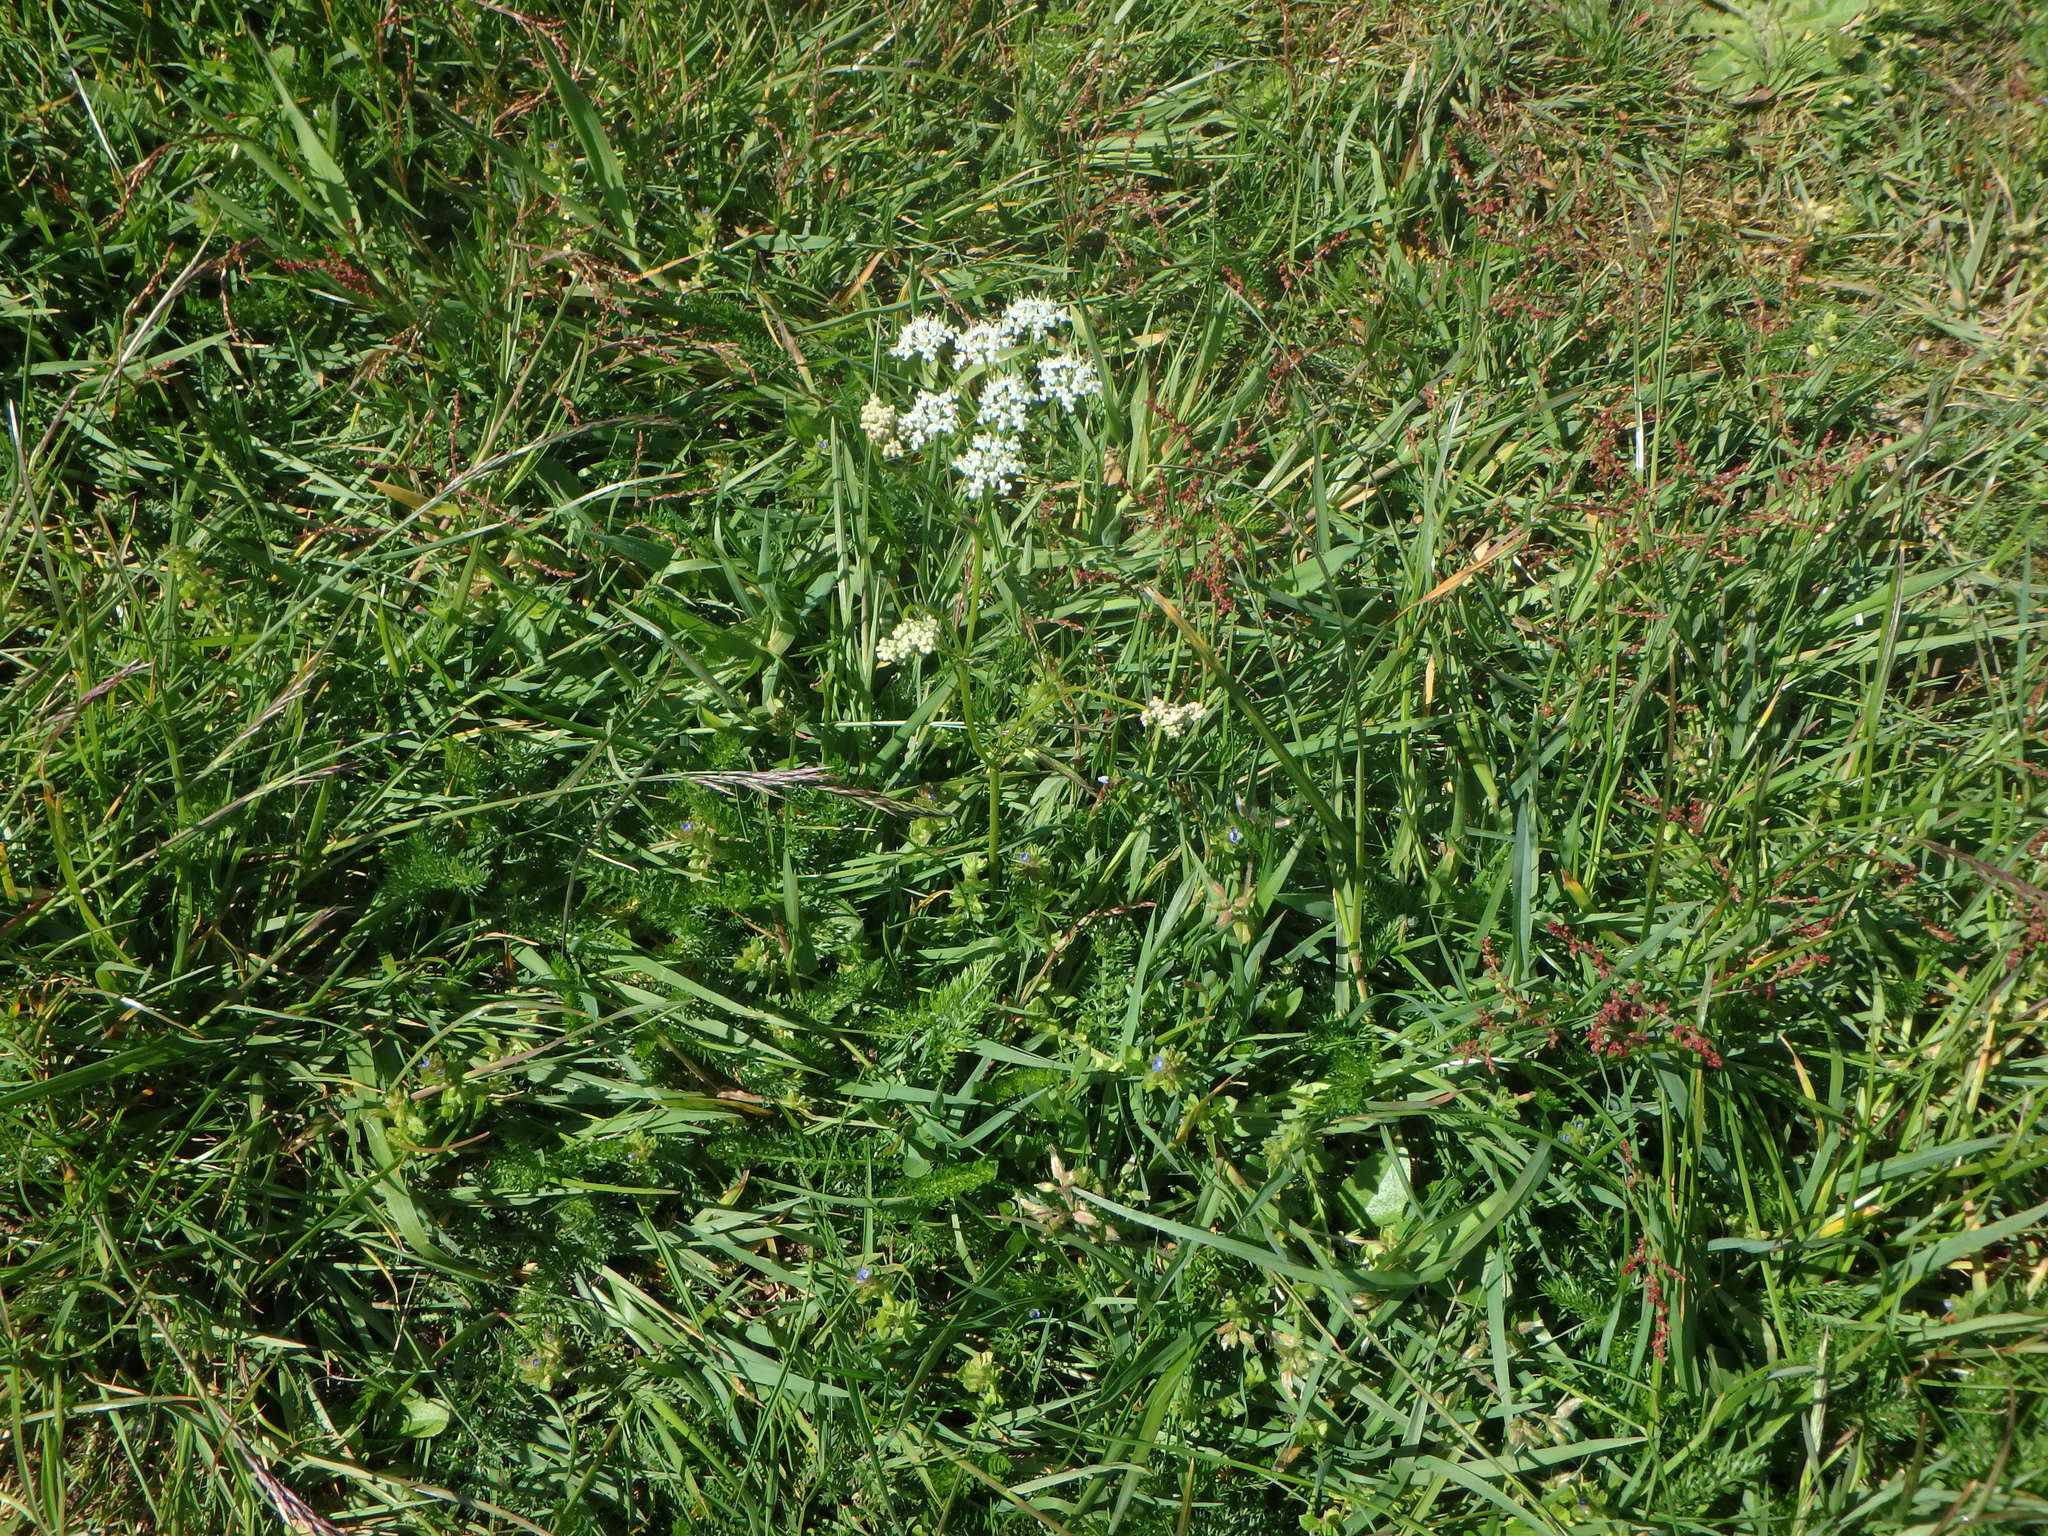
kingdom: Plantae
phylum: Tracheophyta
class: Magnoliopsida
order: Apiales
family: Apiaceae
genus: Conopodium
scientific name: Conopodium majus
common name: Pignut
